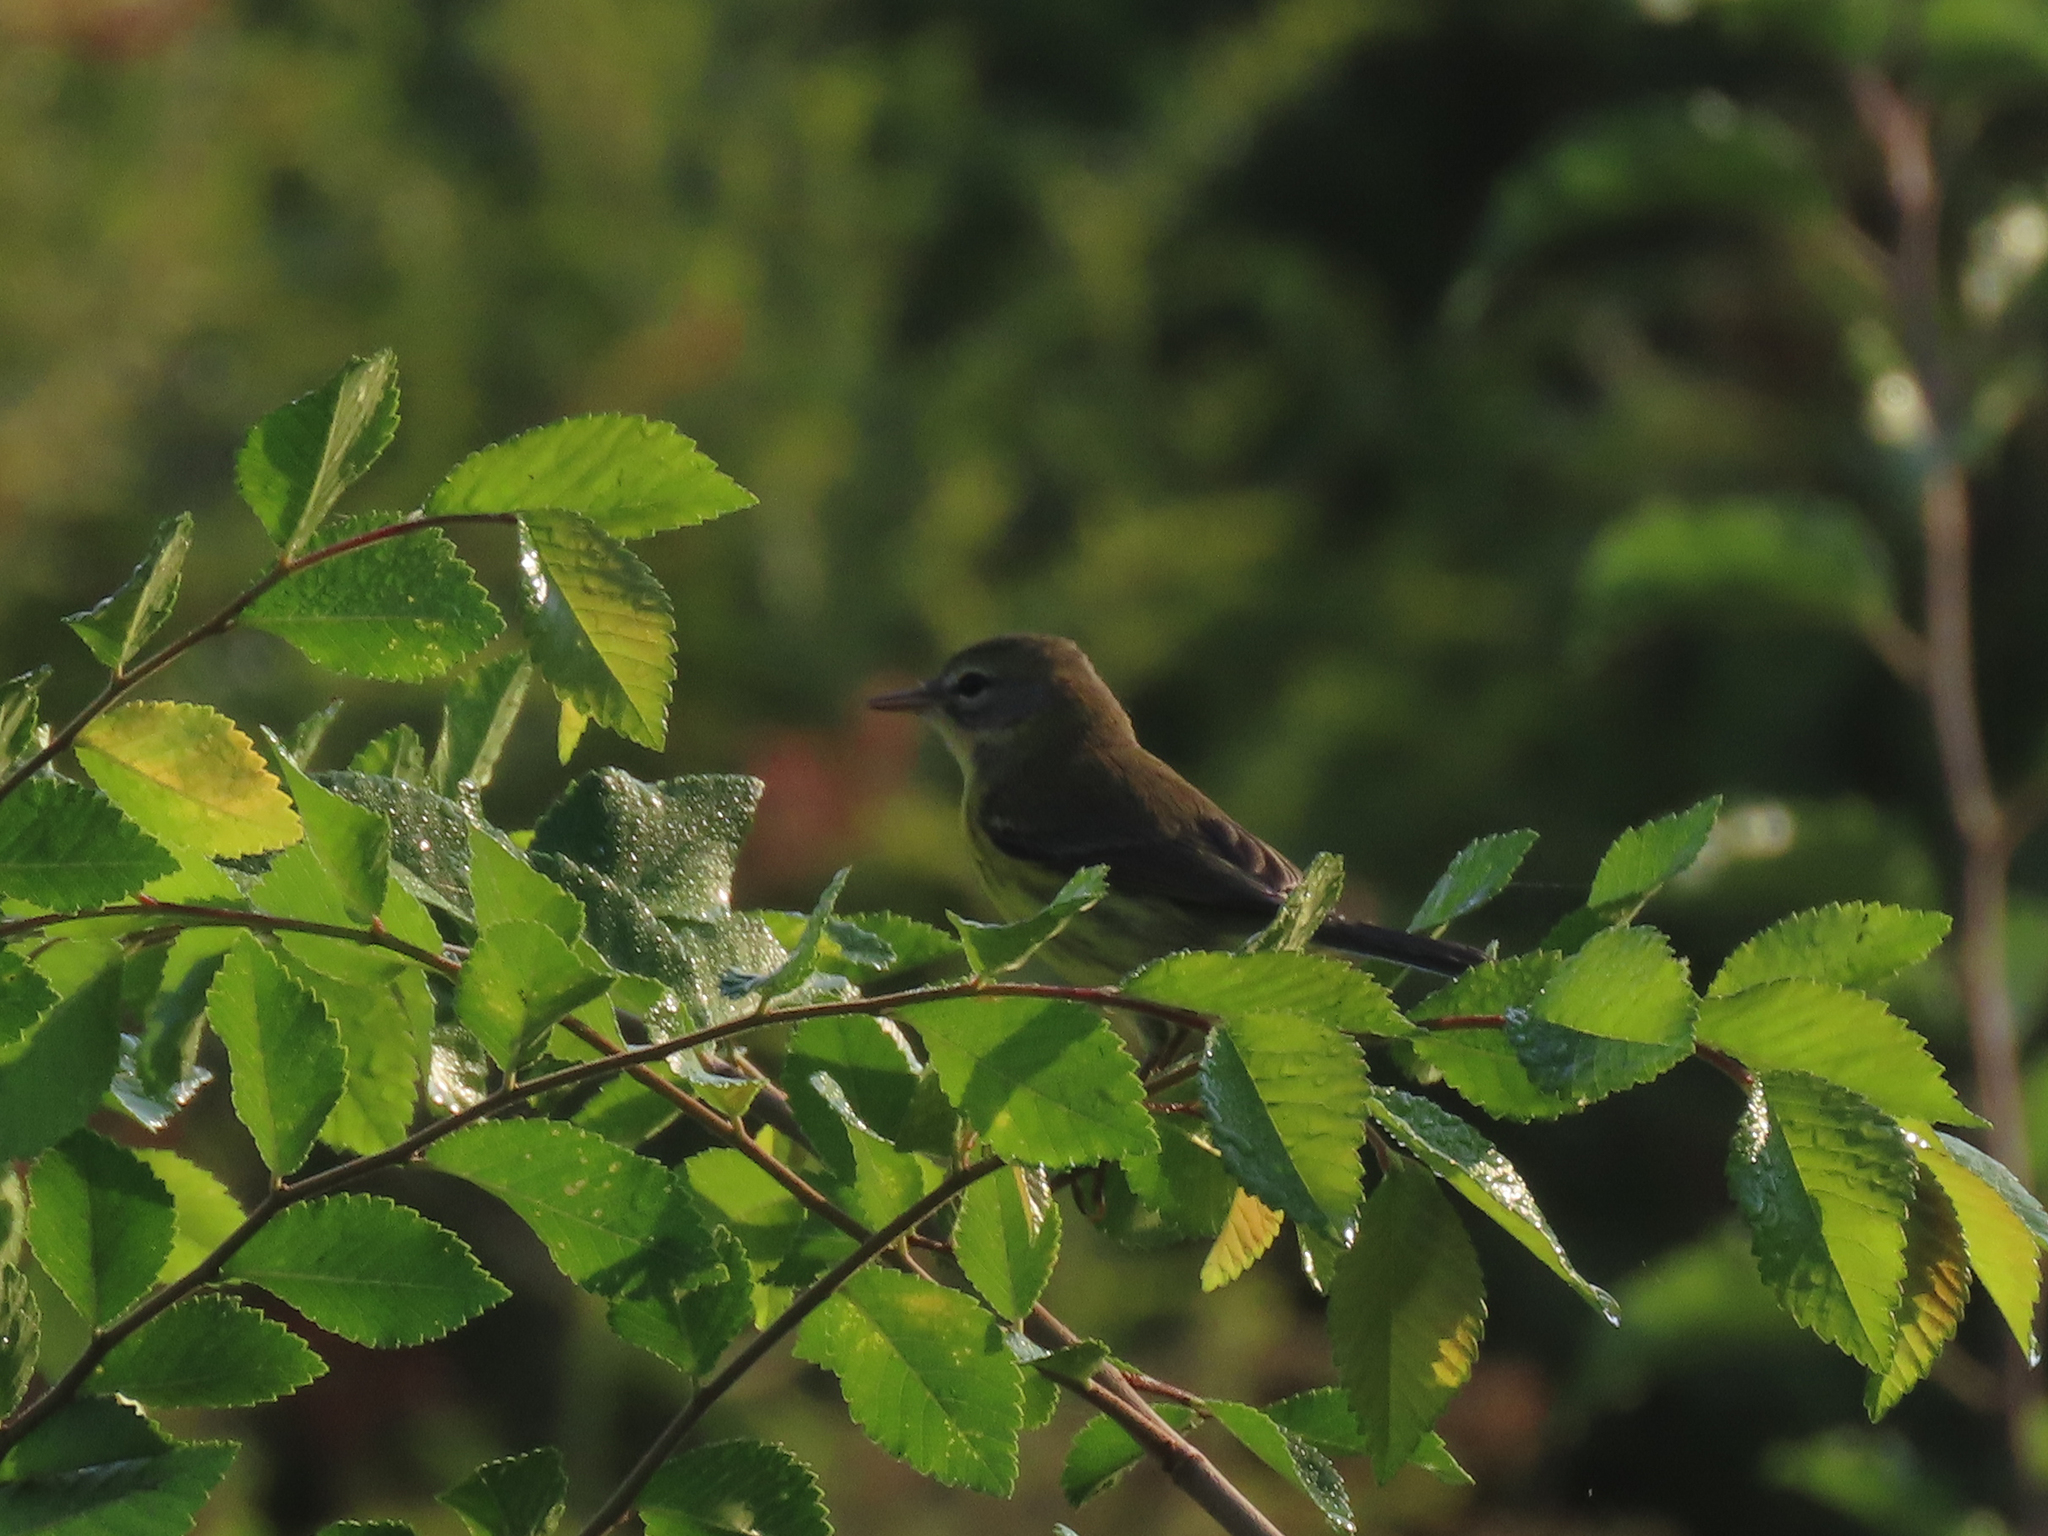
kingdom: Animalia
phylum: Chordata
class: Aves
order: Passeriformes
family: Parulidae
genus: Setophaga
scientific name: Setophaga discolor
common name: Prairie warbler
